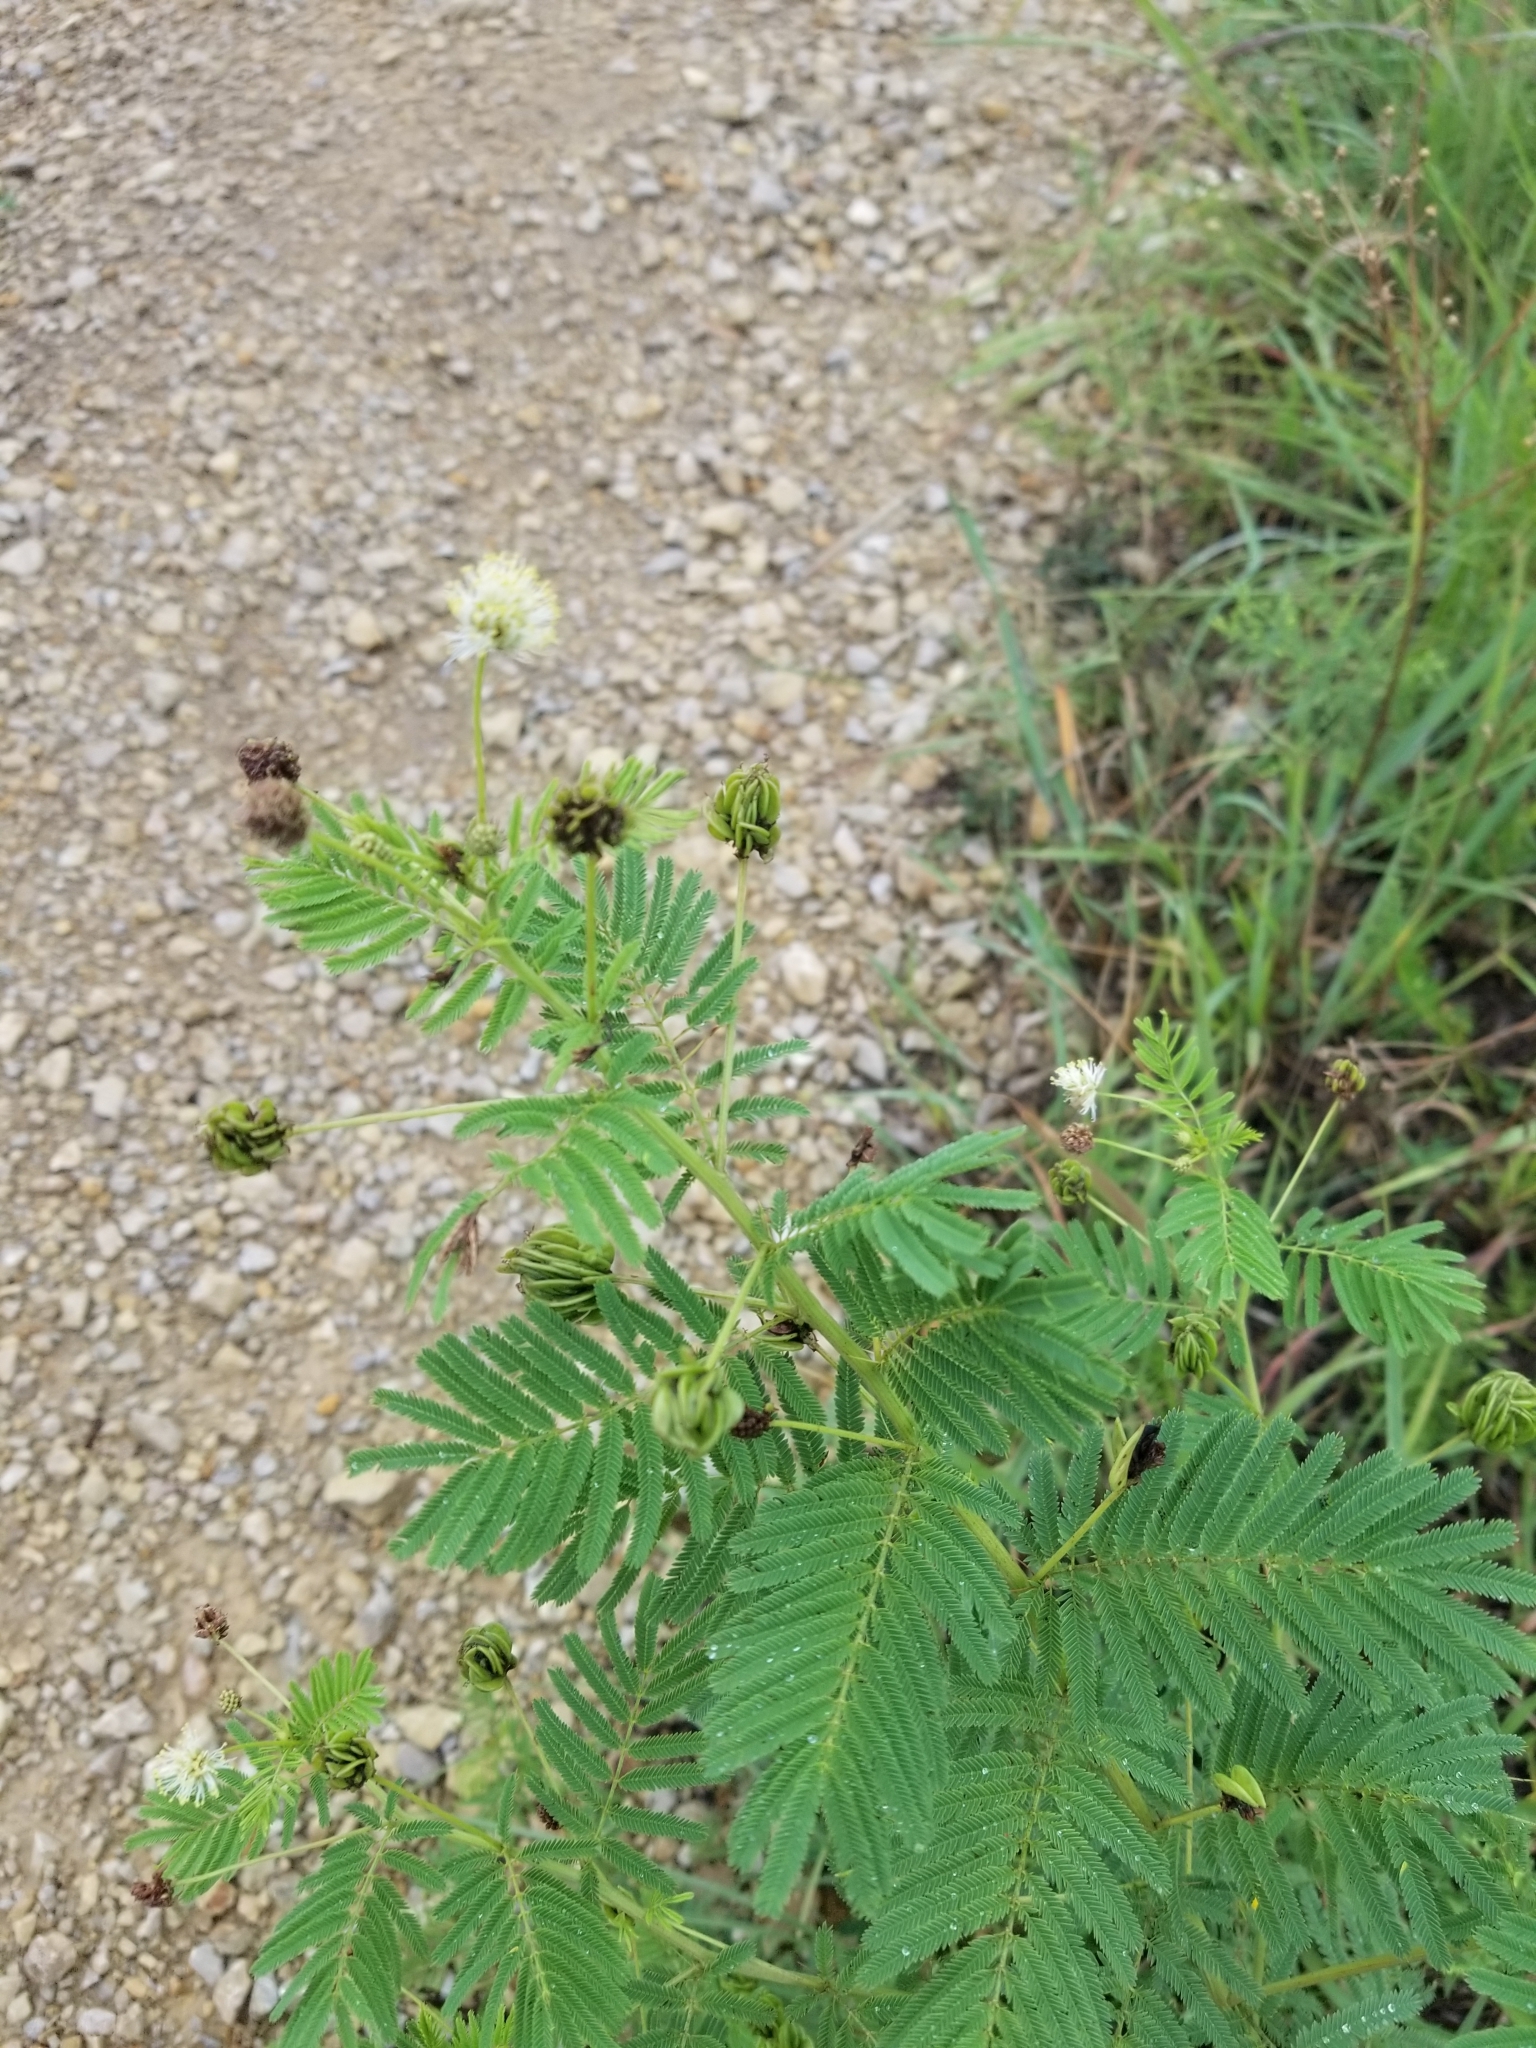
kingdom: Plantae
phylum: Tracheophyta
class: Magnoliopsida
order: Fabales
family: Fabaceae
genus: Desmanthus
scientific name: Desmanthus illinoensis
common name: Illinois bundle-flower
